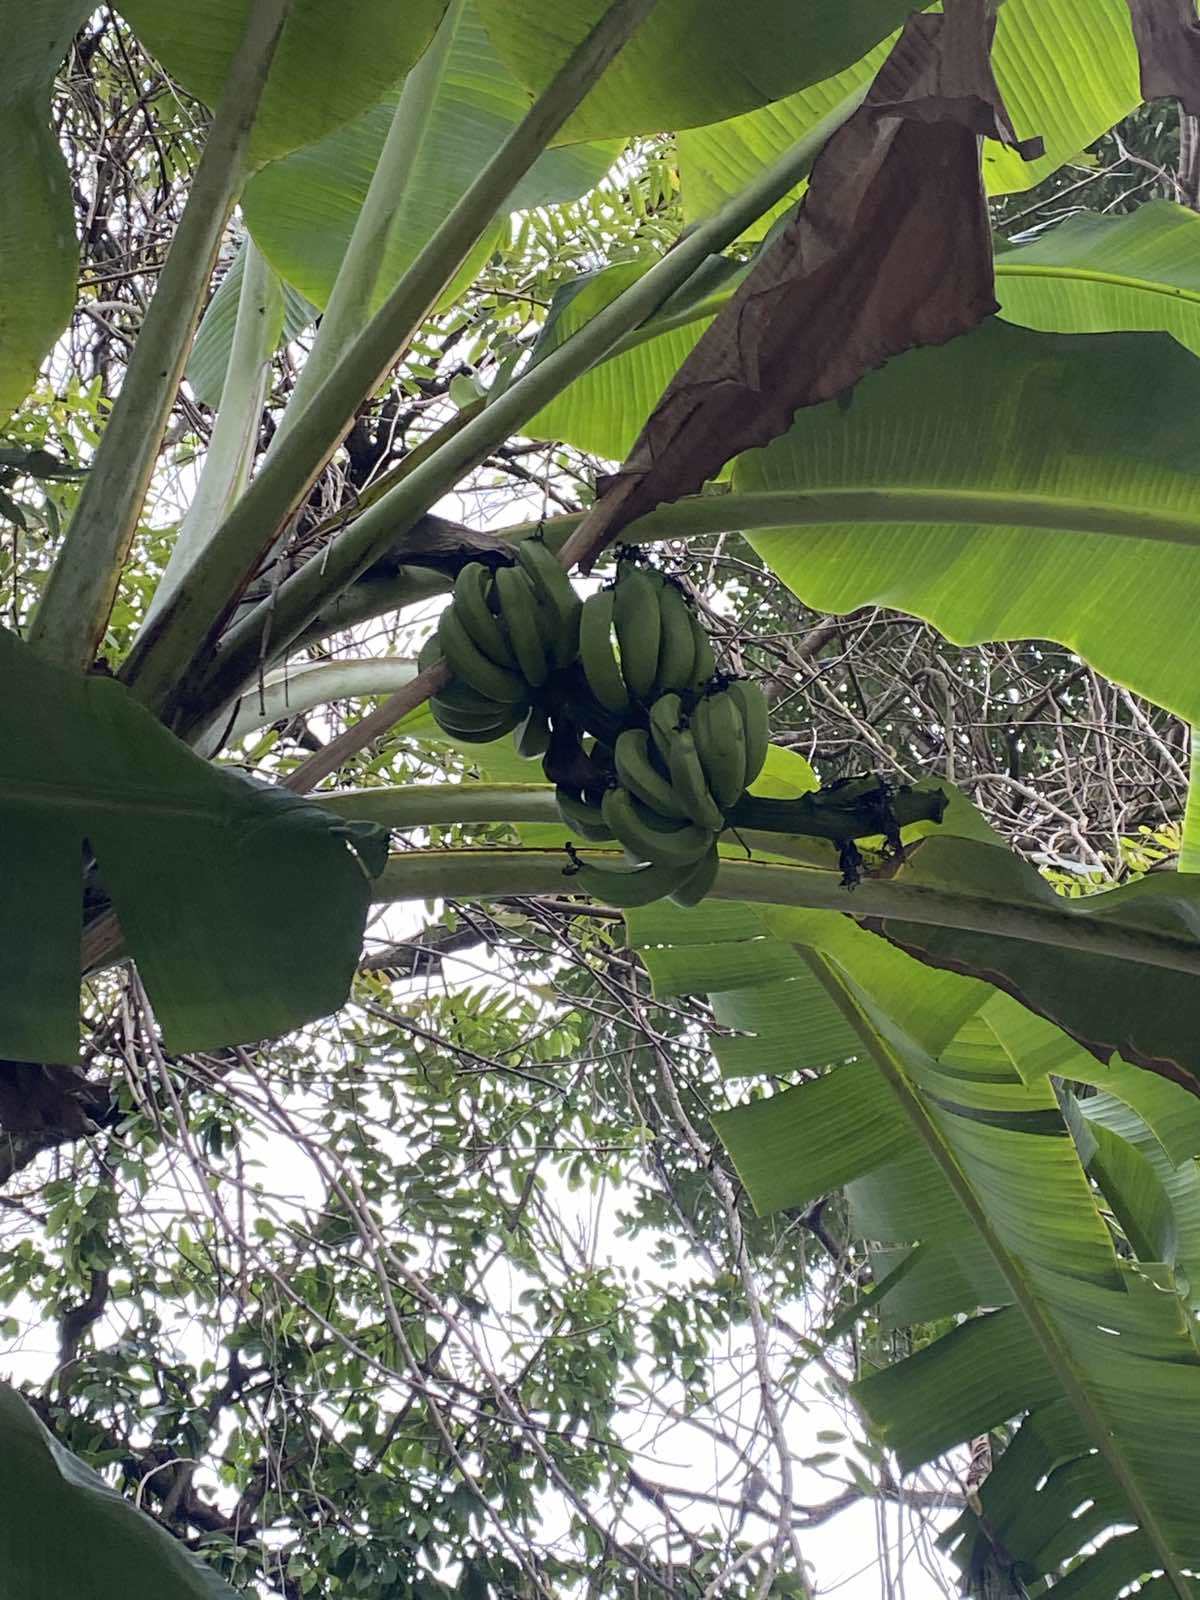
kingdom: Plantae
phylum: Tracheophyta
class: Liliopsida
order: Zingiberales
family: Musaceae
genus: Musa
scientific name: Musa acuminata
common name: Edible banana
